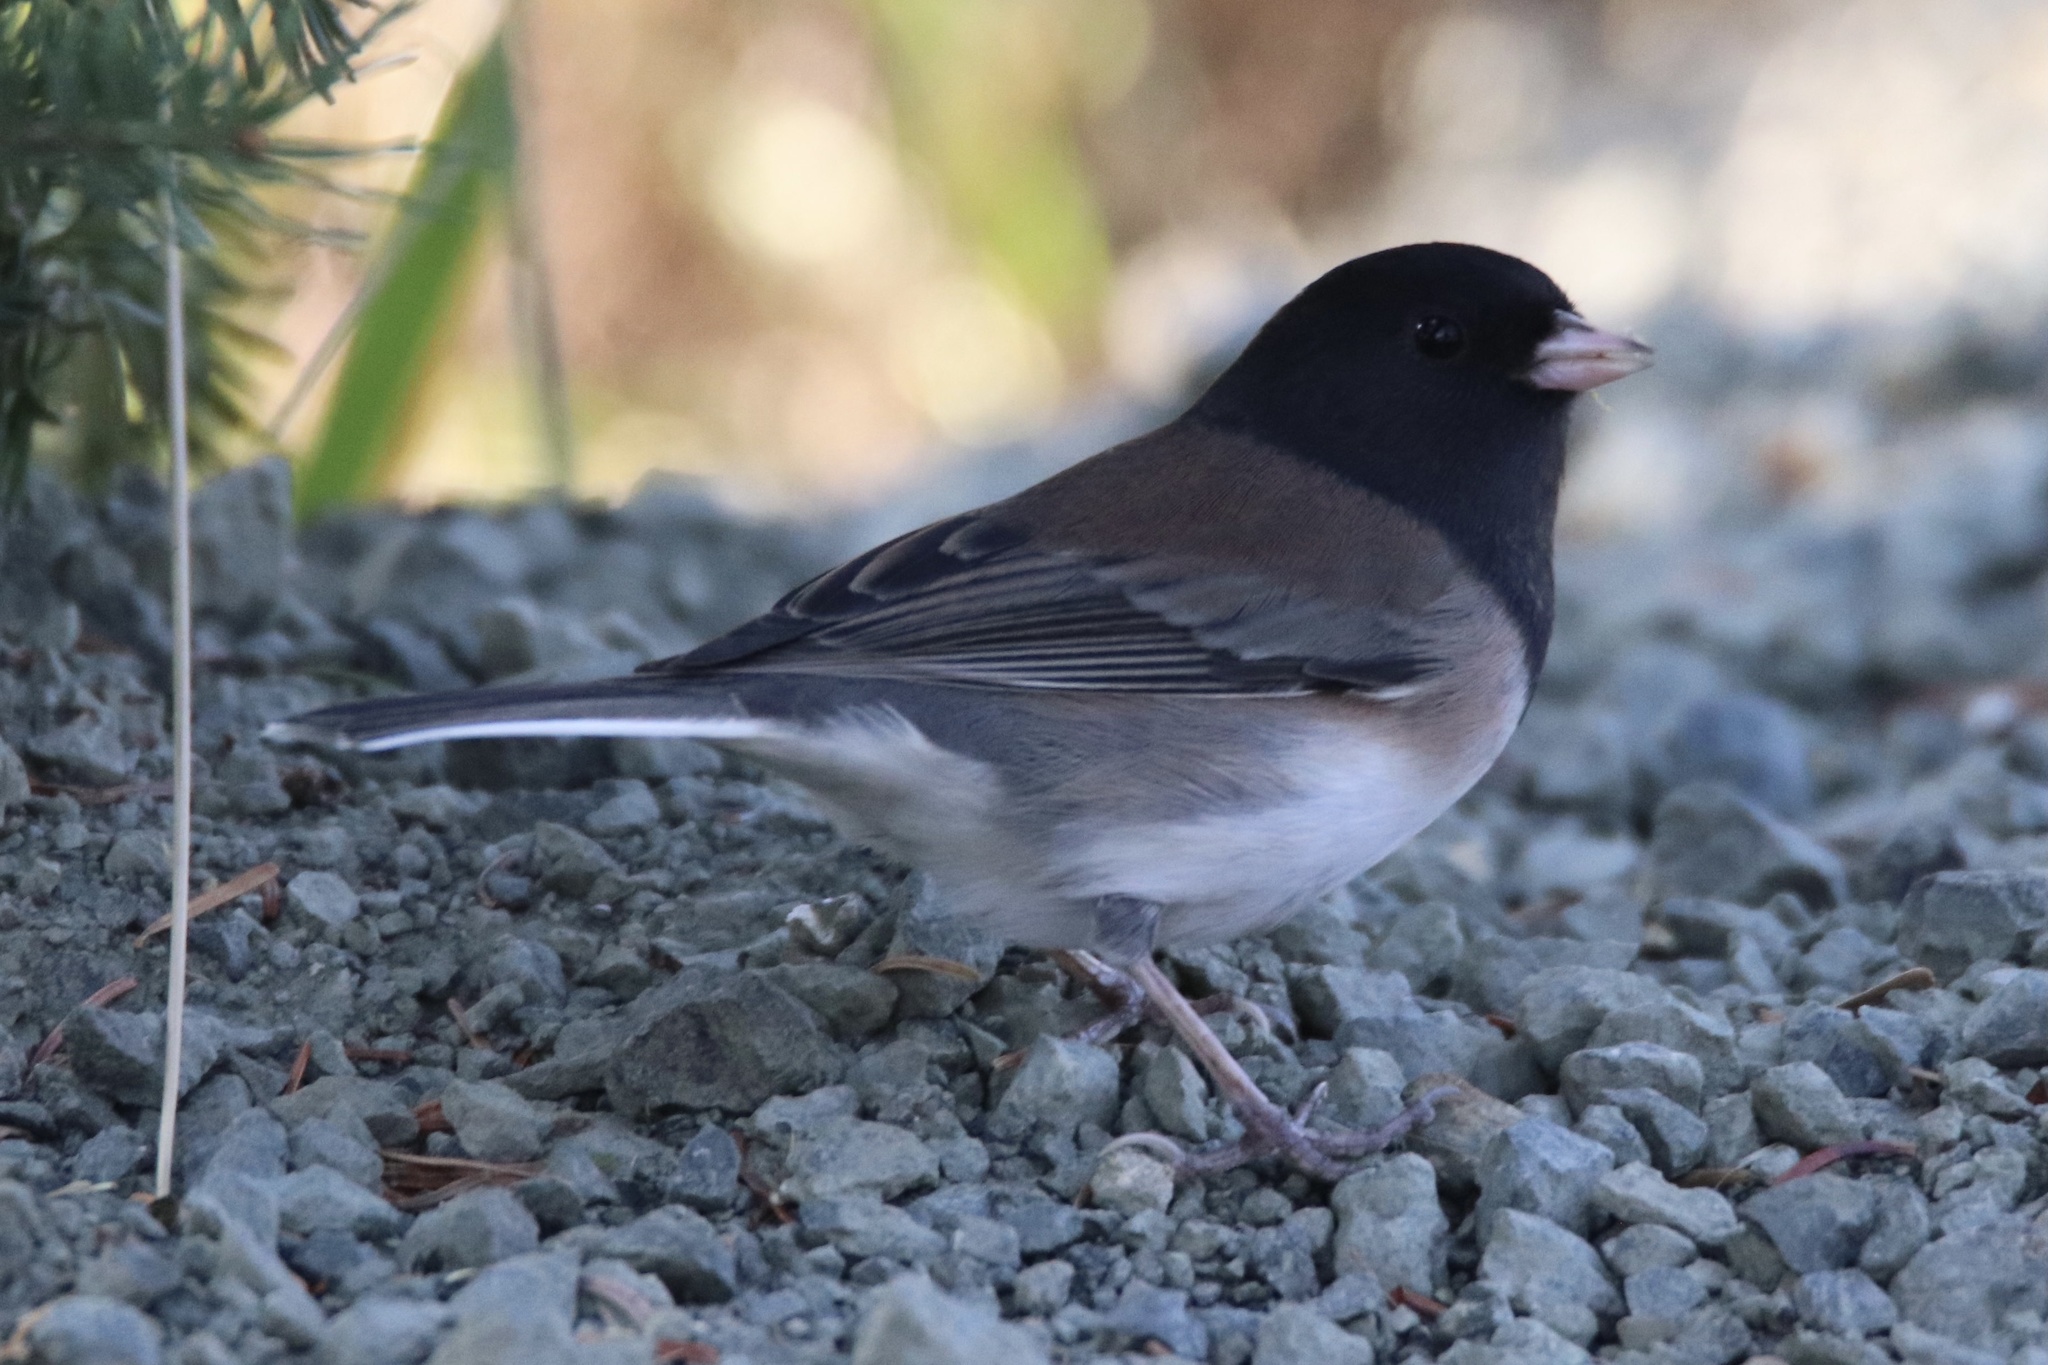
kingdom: Animalia
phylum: Chordata
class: Aves
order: Passeriformes
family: Passerellidae
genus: Junco
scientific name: Junco hyemalis
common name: Dark-eyed junco
